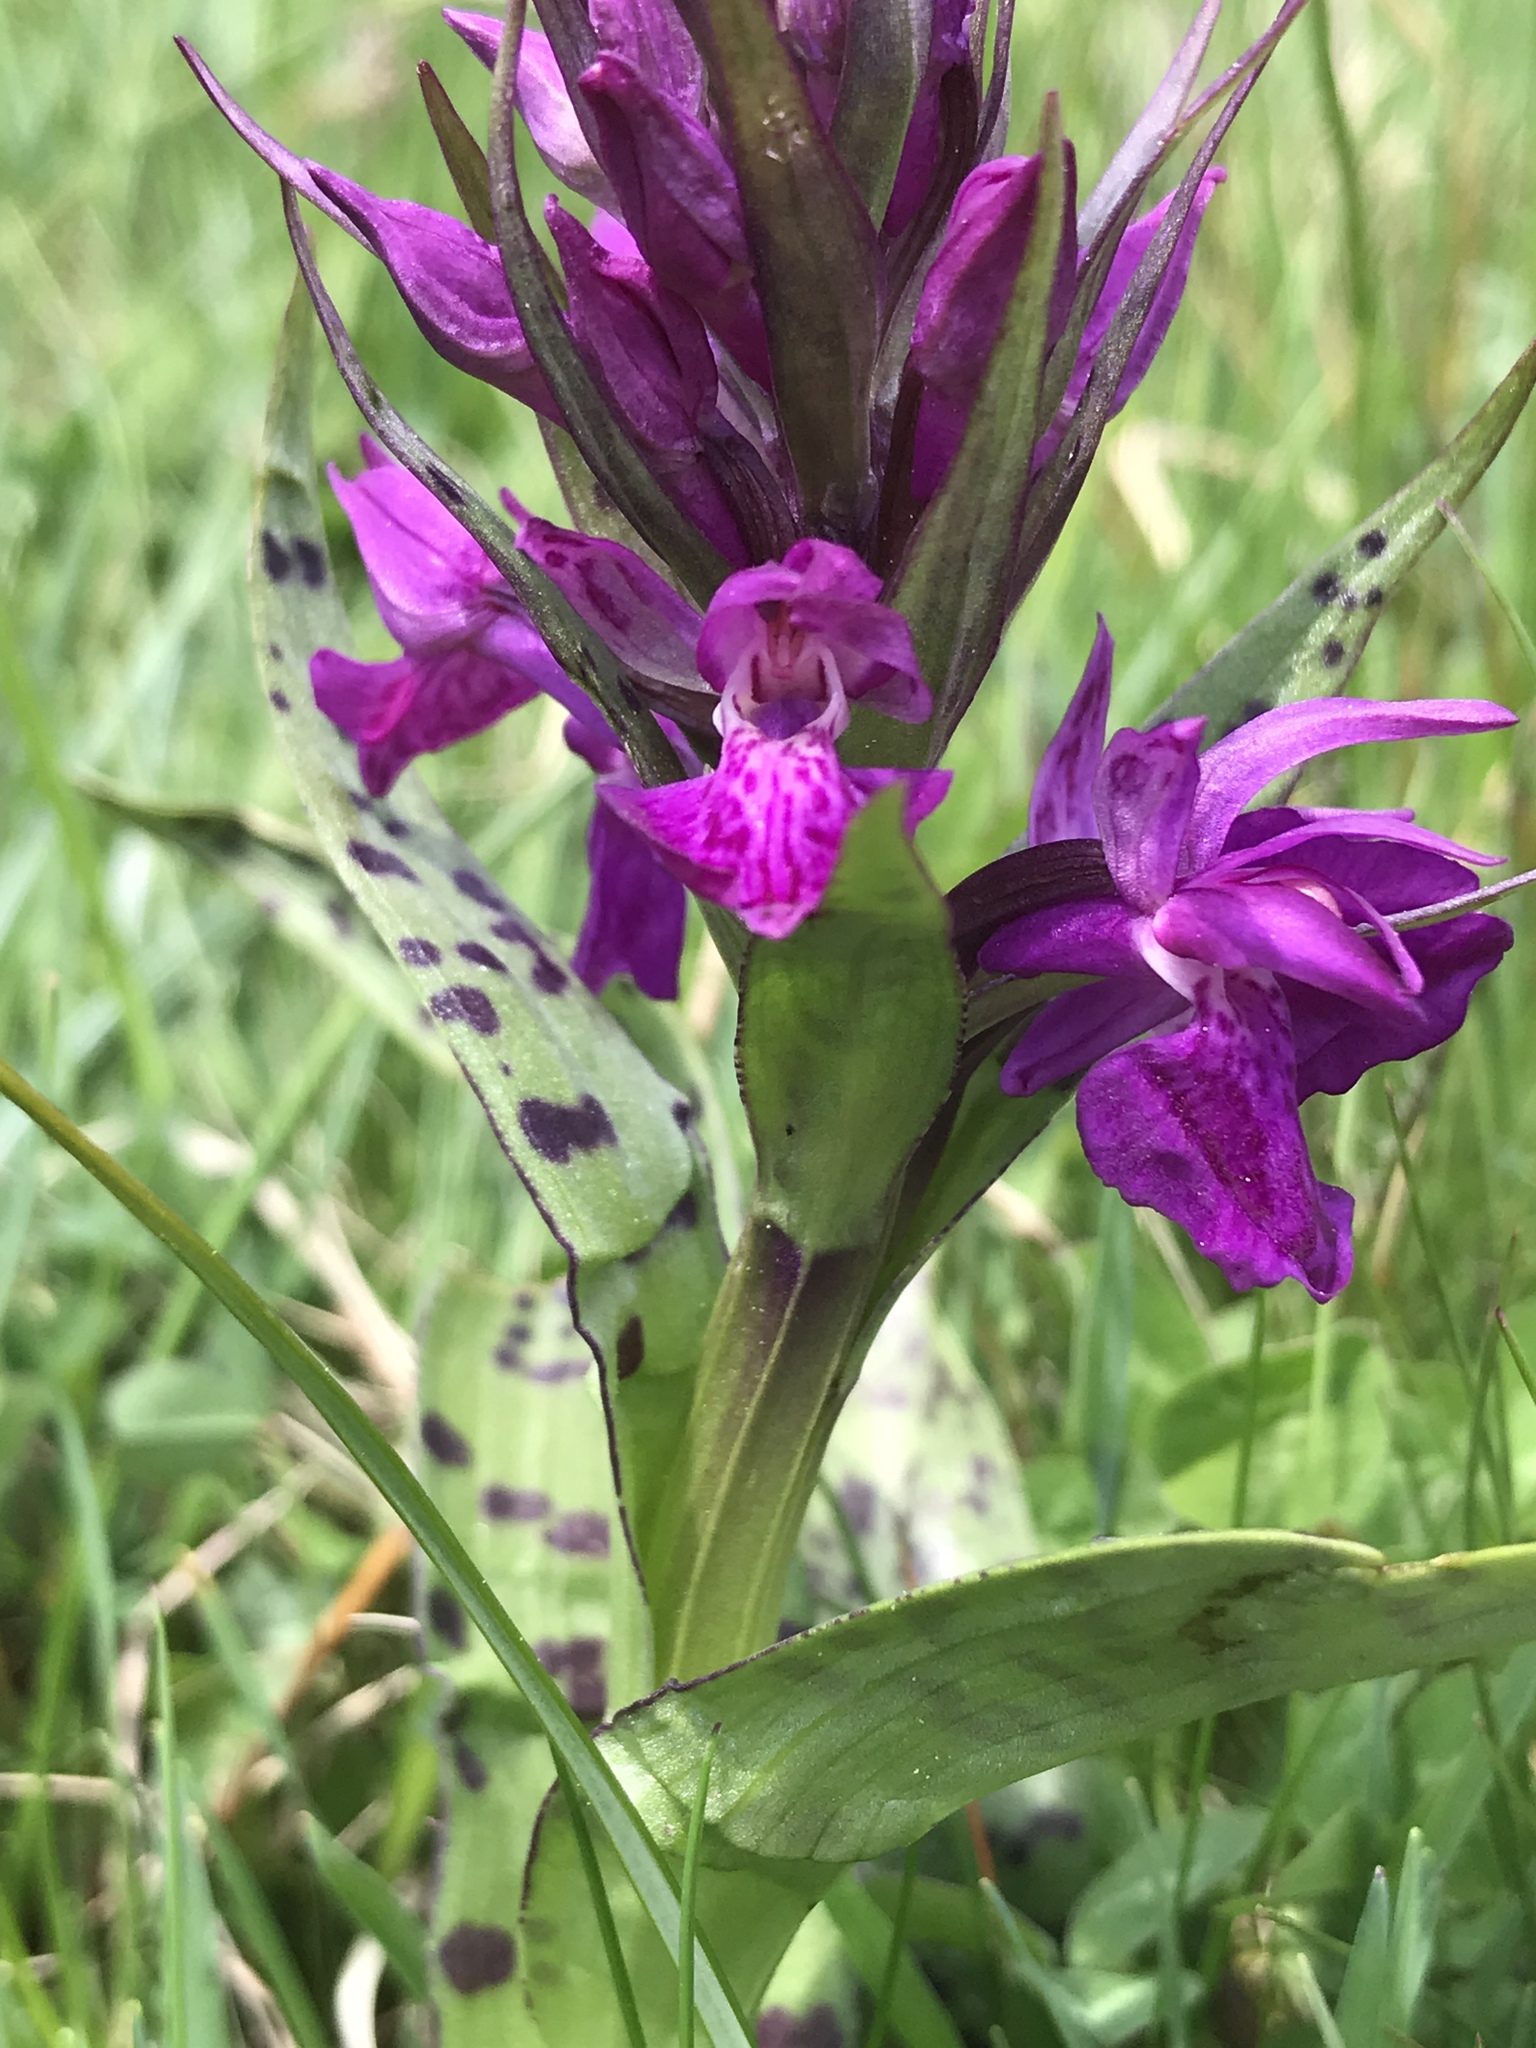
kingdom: Plantae
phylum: Tracheophyta
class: Liliopsida
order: Asparagales
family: Orchidaceae
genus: Dactylorhiza
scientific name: Dactylorhiza majalis
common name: Marsh orchid
